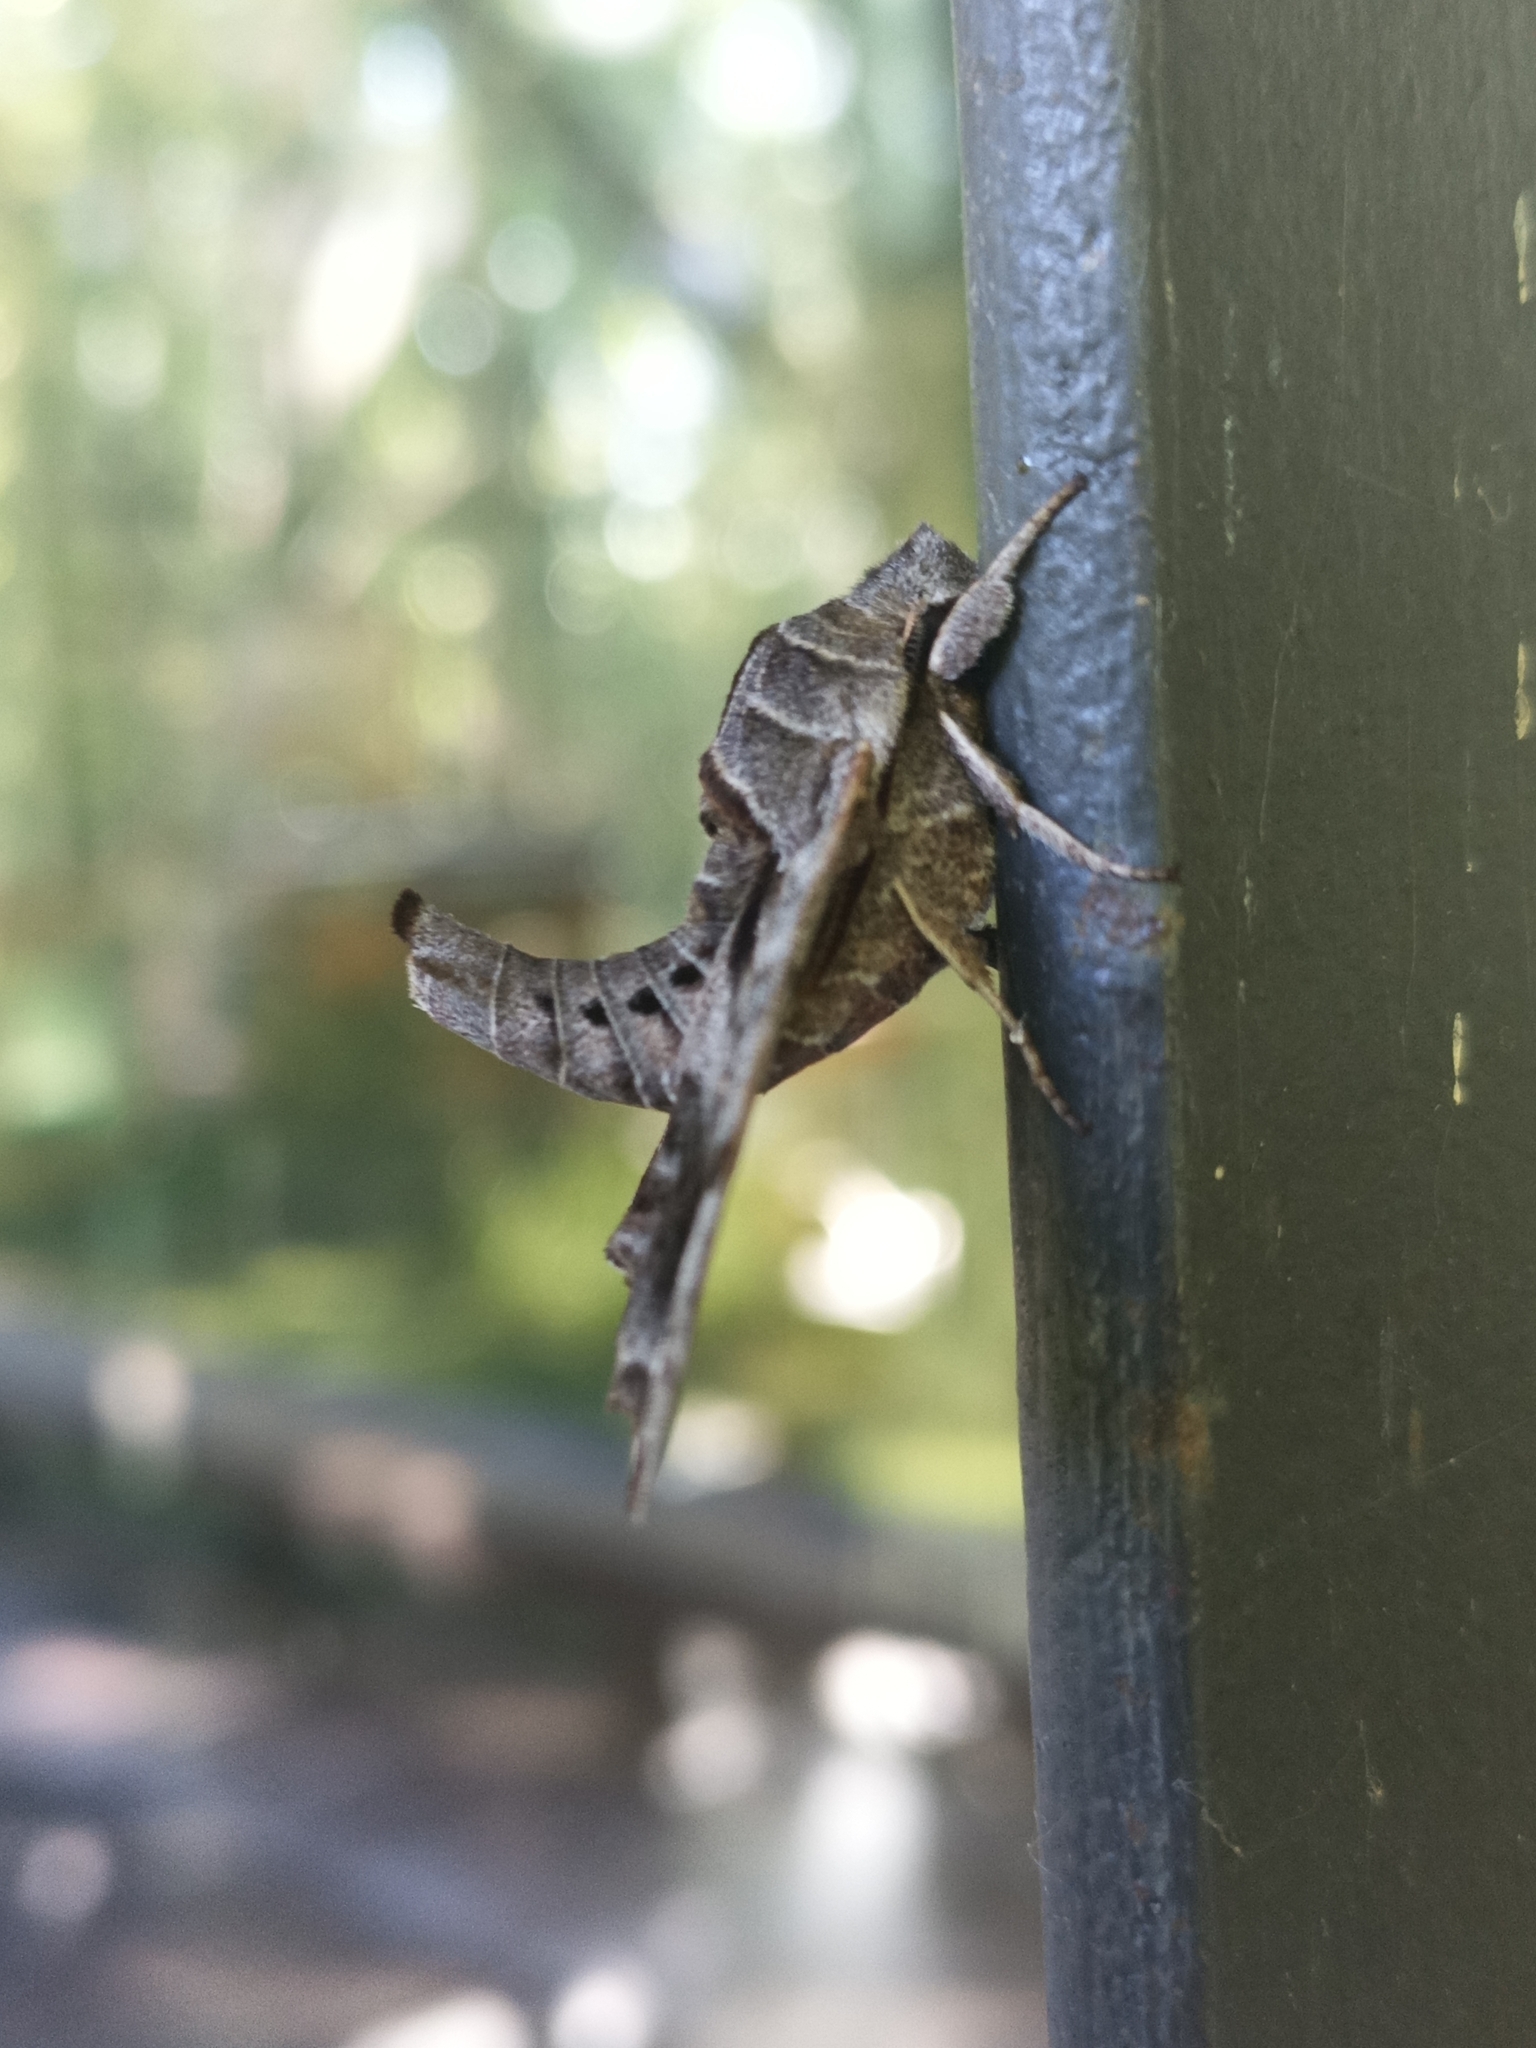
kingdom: Animalia
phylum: Arthropoda
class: Insecta
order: Lepidoptera
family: Sphingidae
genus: Deidamia
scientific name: Deidamia inscriptum
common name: Lettered sphinx
